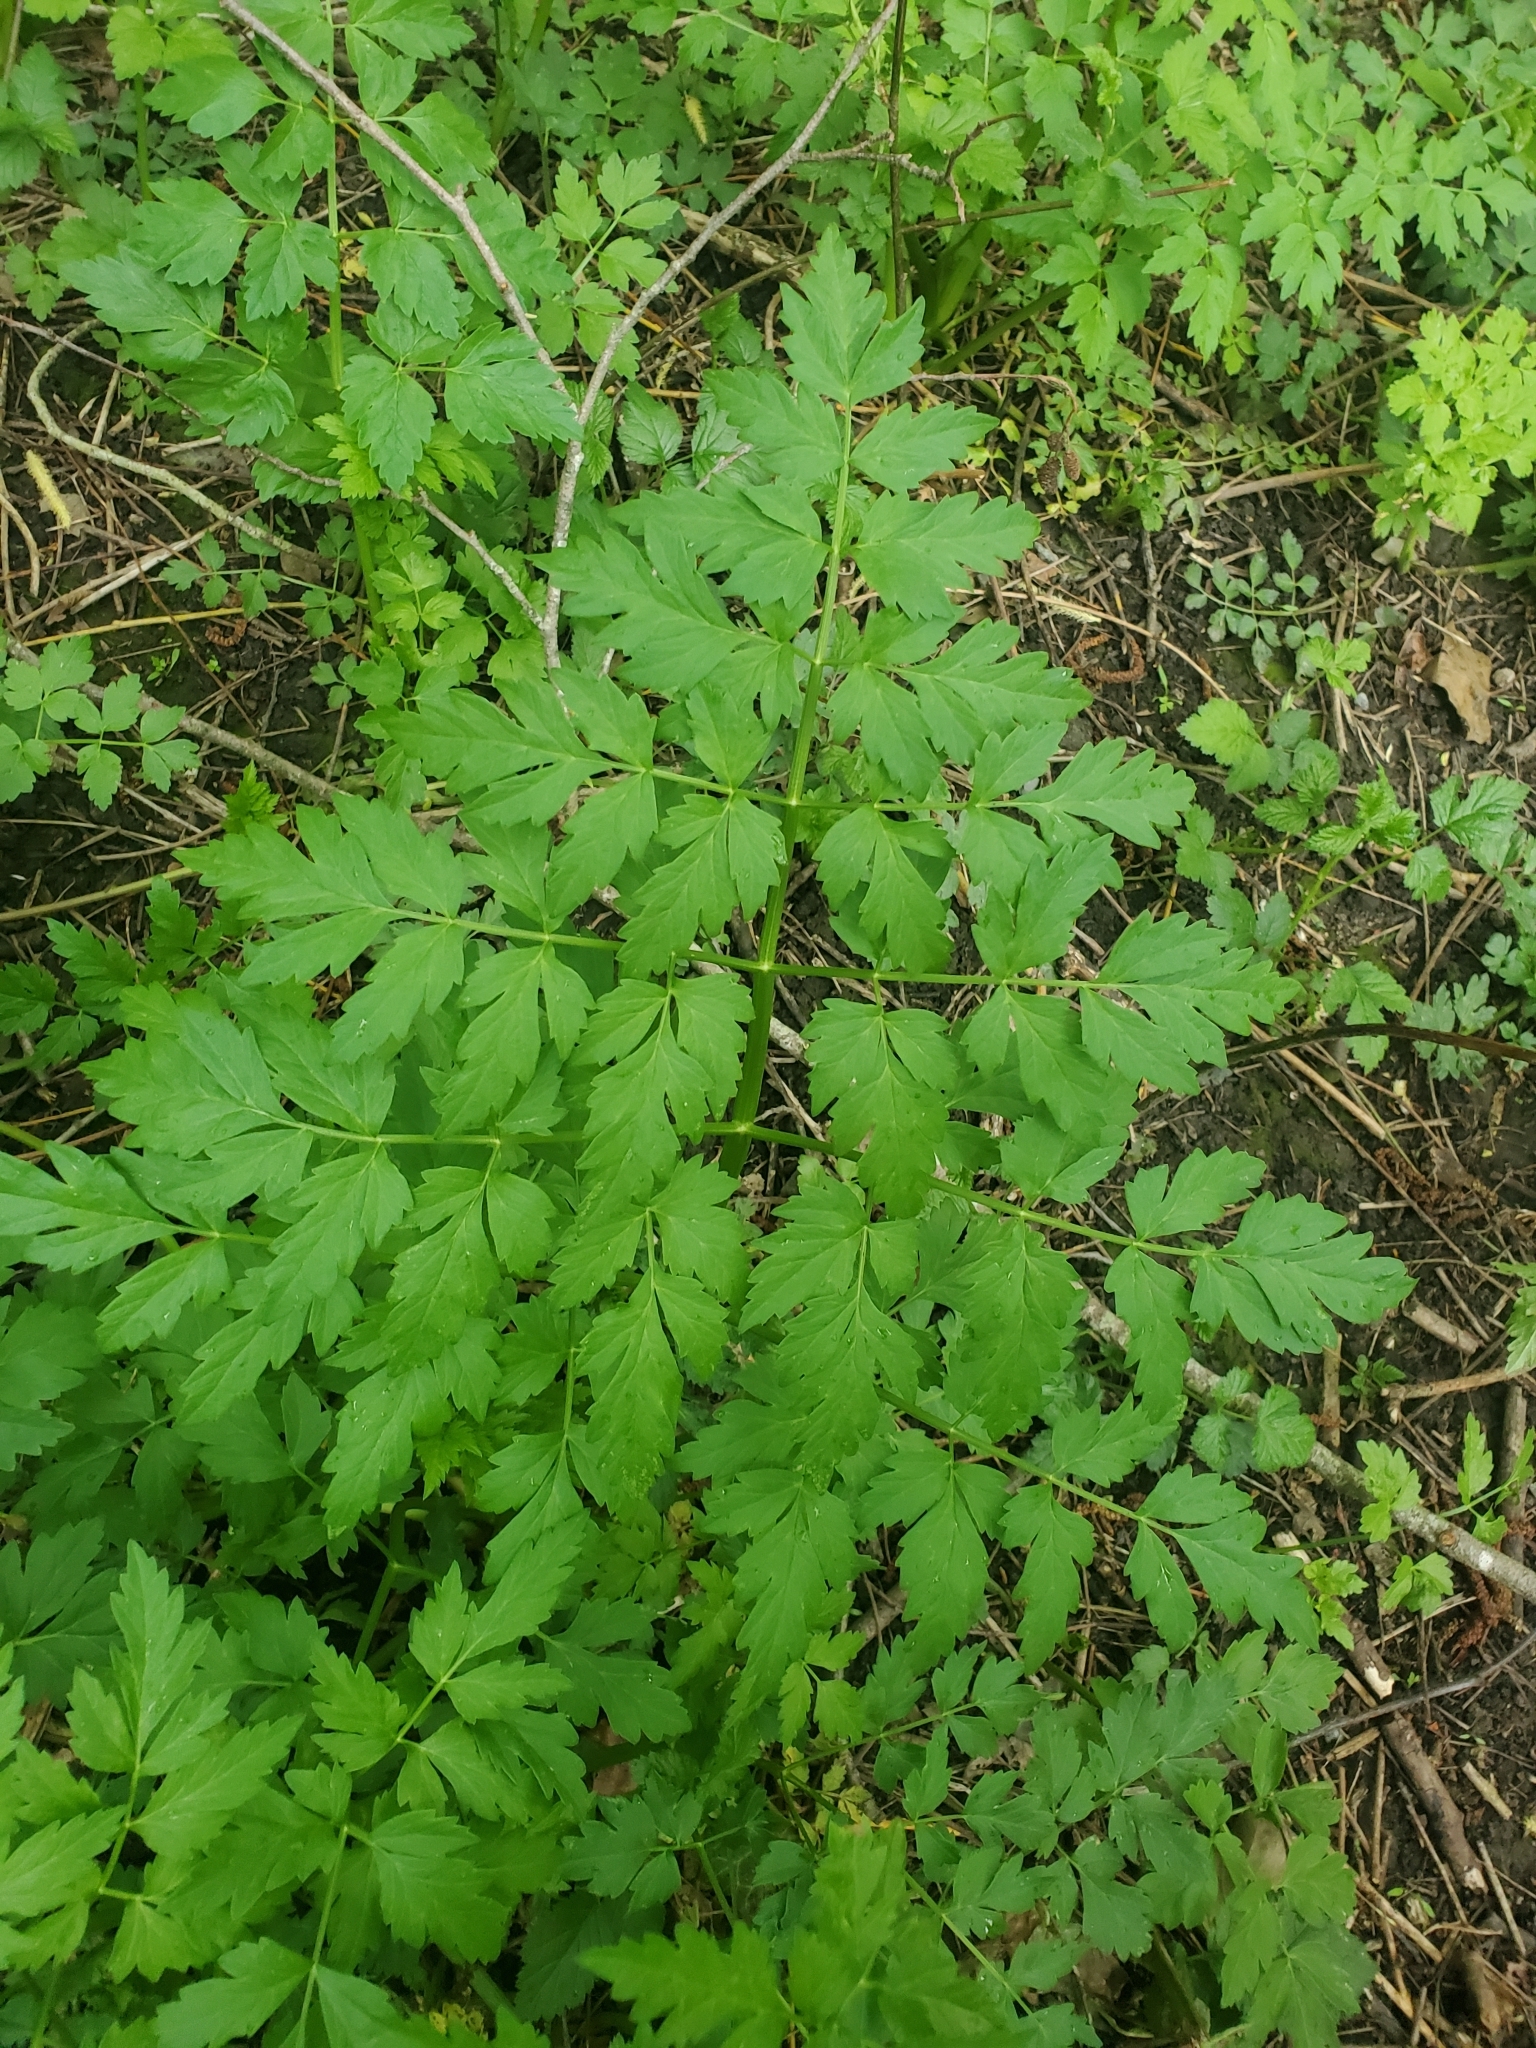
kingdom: Plantae
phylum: Tracheophyta
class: Magnoliopsida
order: Apiales
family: Apiaceae
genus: Oenanthe
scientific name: Oenanthe sarmentosa
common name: American water-parsley
